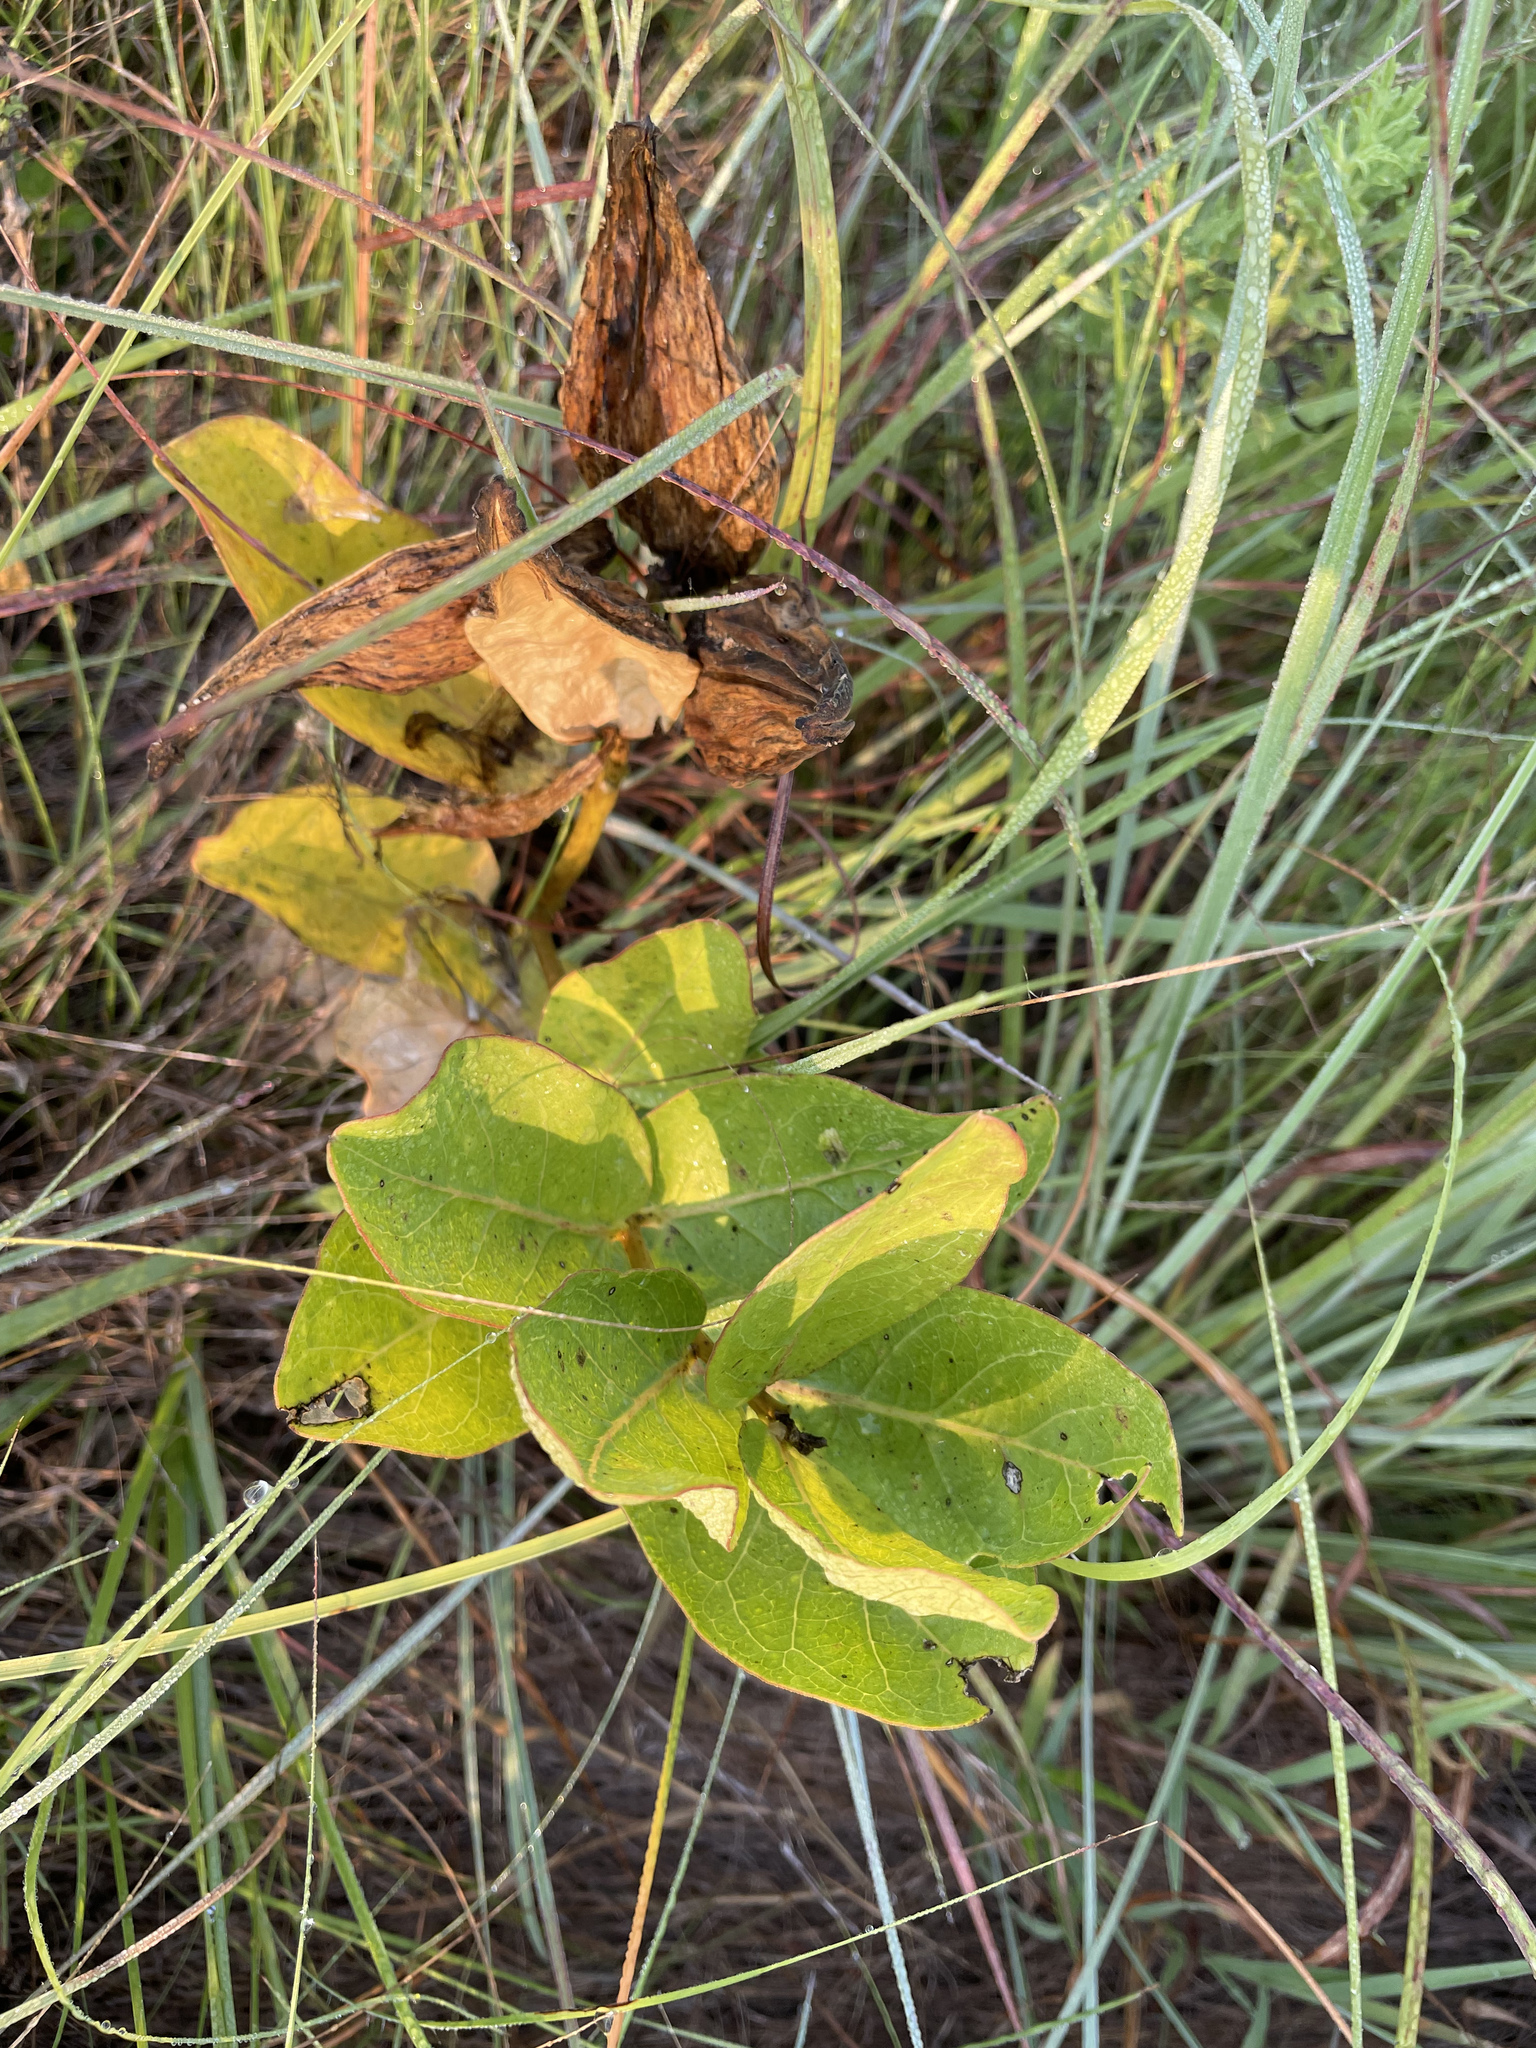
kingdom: Plantae
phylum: Tracheophyta
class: Magnoliopsida
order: Gentianales
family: Apocynaceae
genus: Asclepias
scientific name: Asclepias viridis
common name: Antelope-horns
